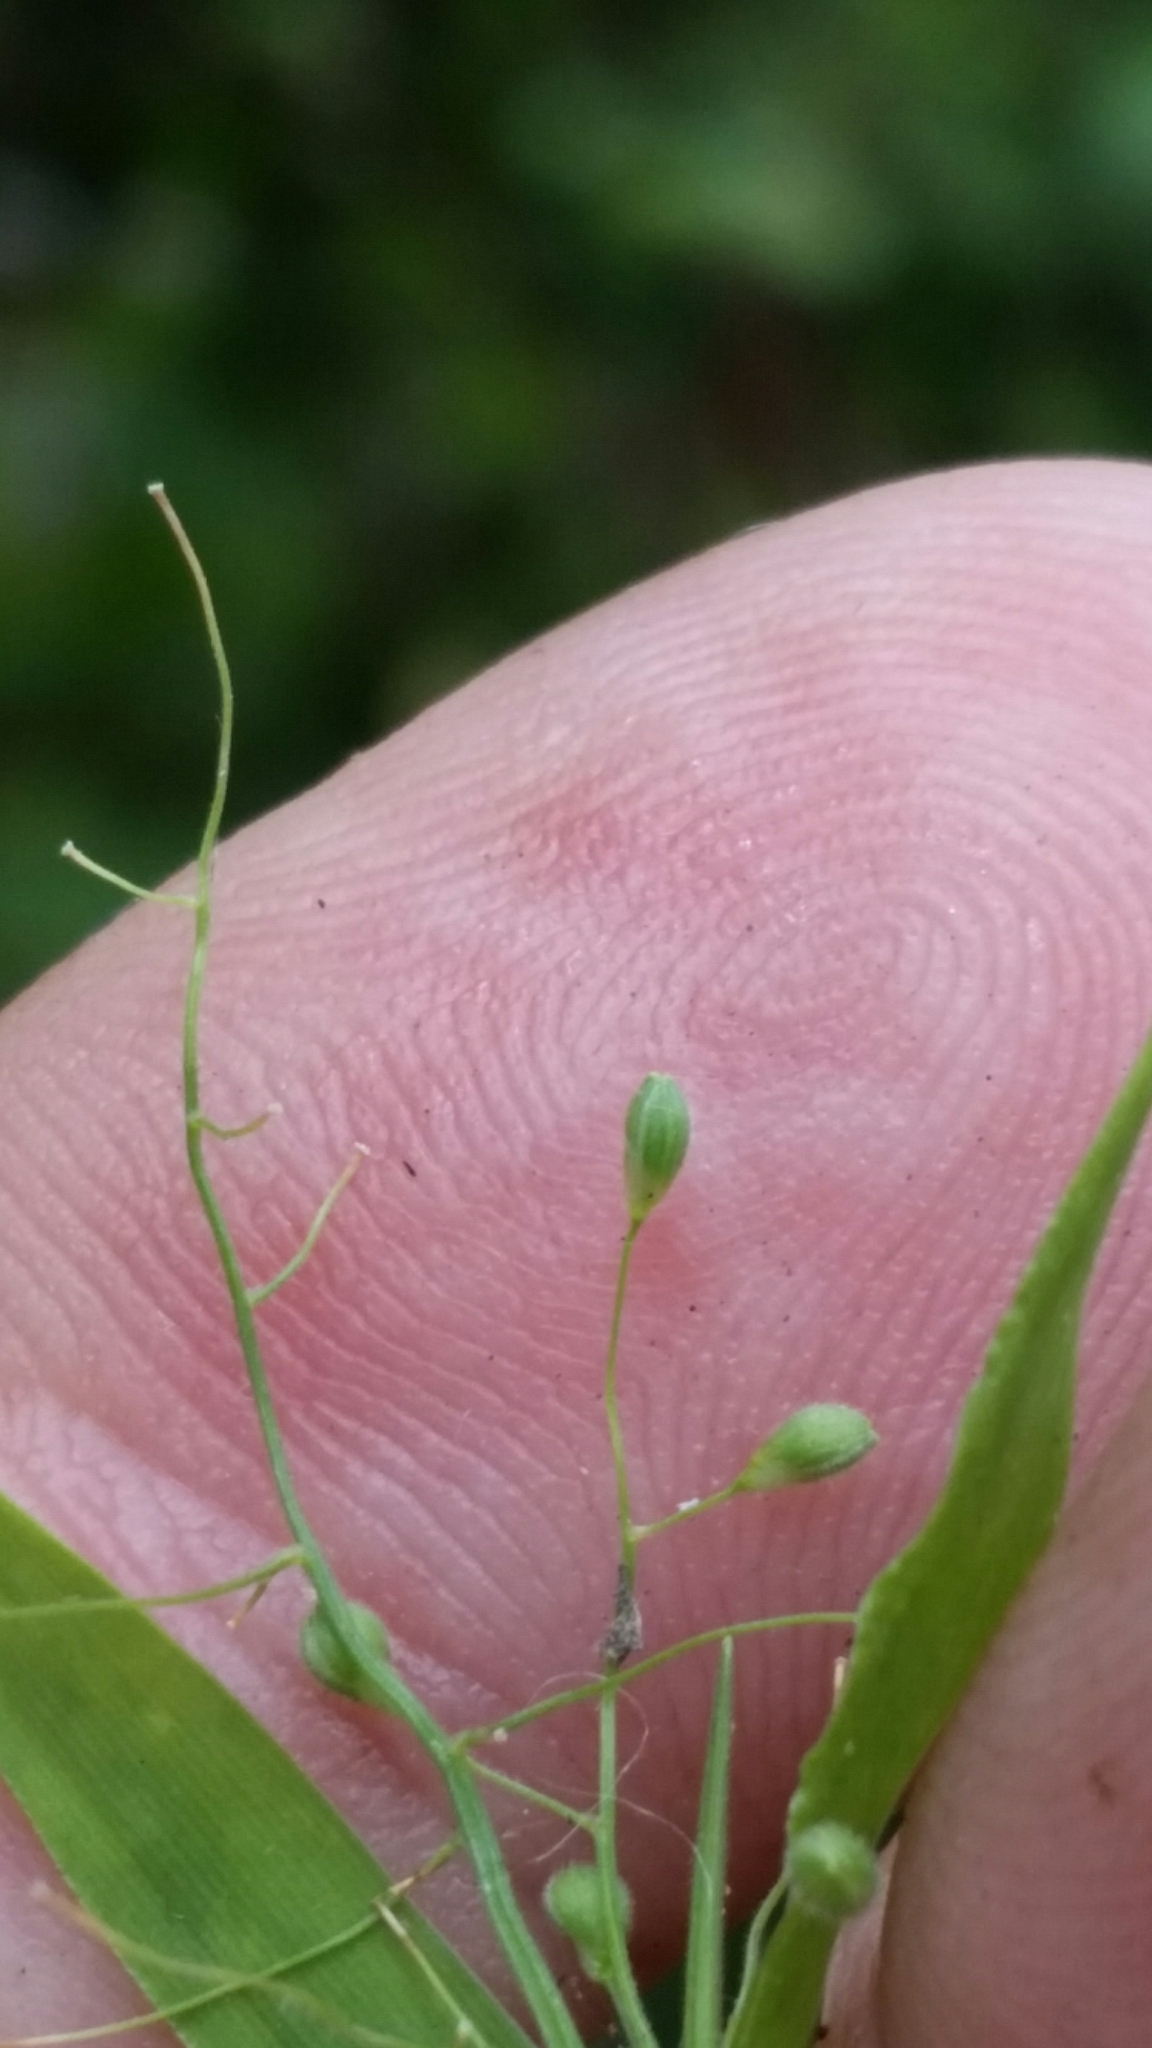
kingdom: Plantae
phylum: Tracheophyta
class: Liliopsida
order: Poales
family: Poaceae
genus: Dichanthelium
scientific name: Dichanthelium lucidum
